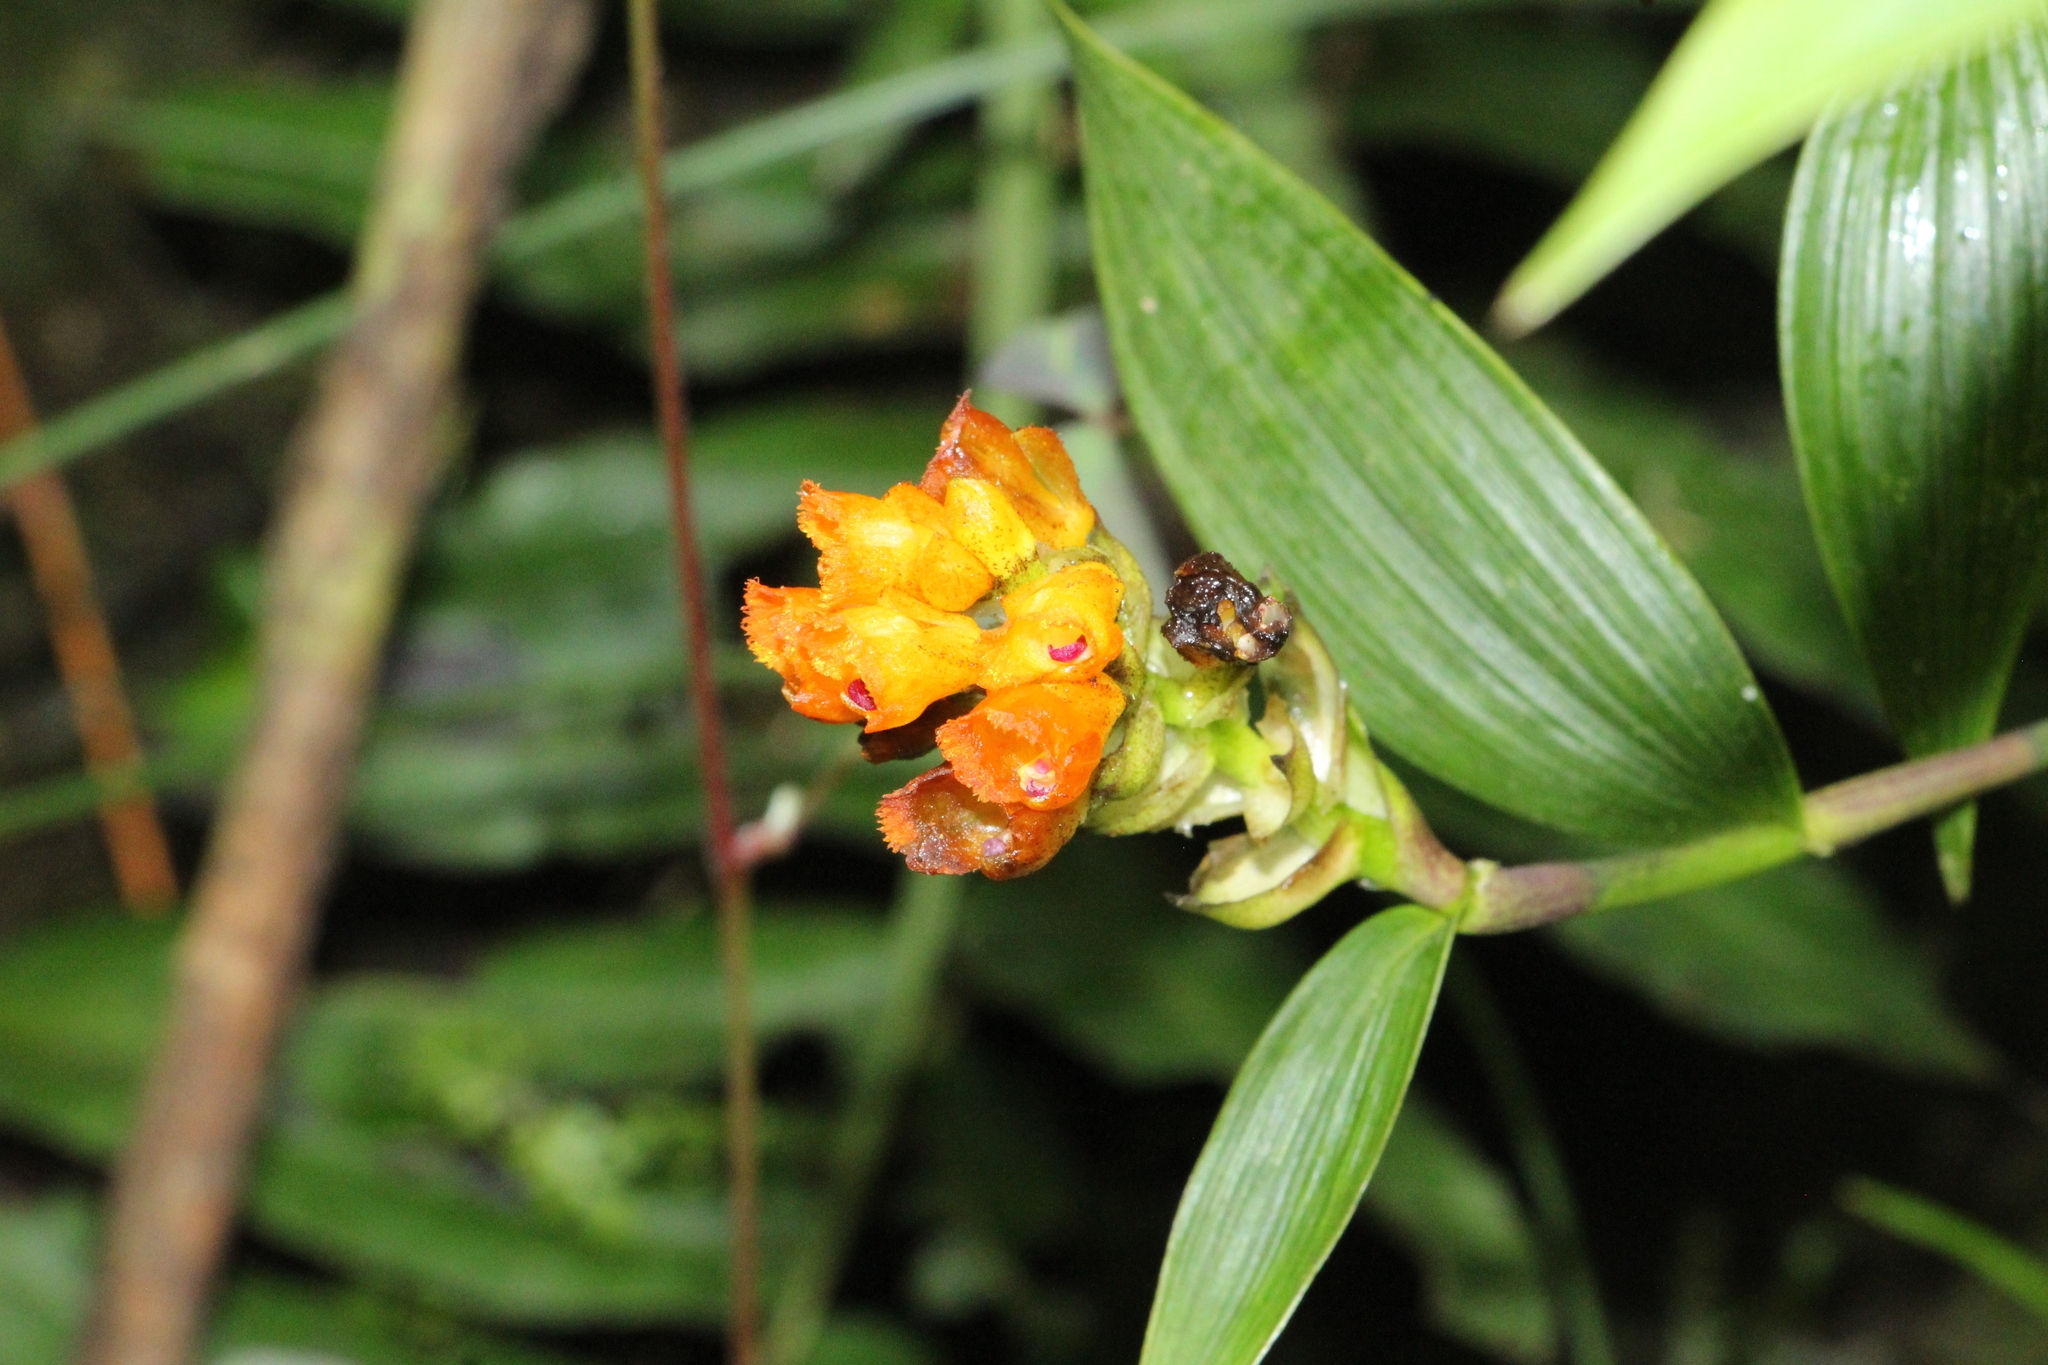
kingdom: Plantae
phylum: Tracheophyta
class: Liliopsida
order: Asparagales
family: Orchidaceae
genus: Elleanthus
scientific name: Elleanthus aurantiacus
